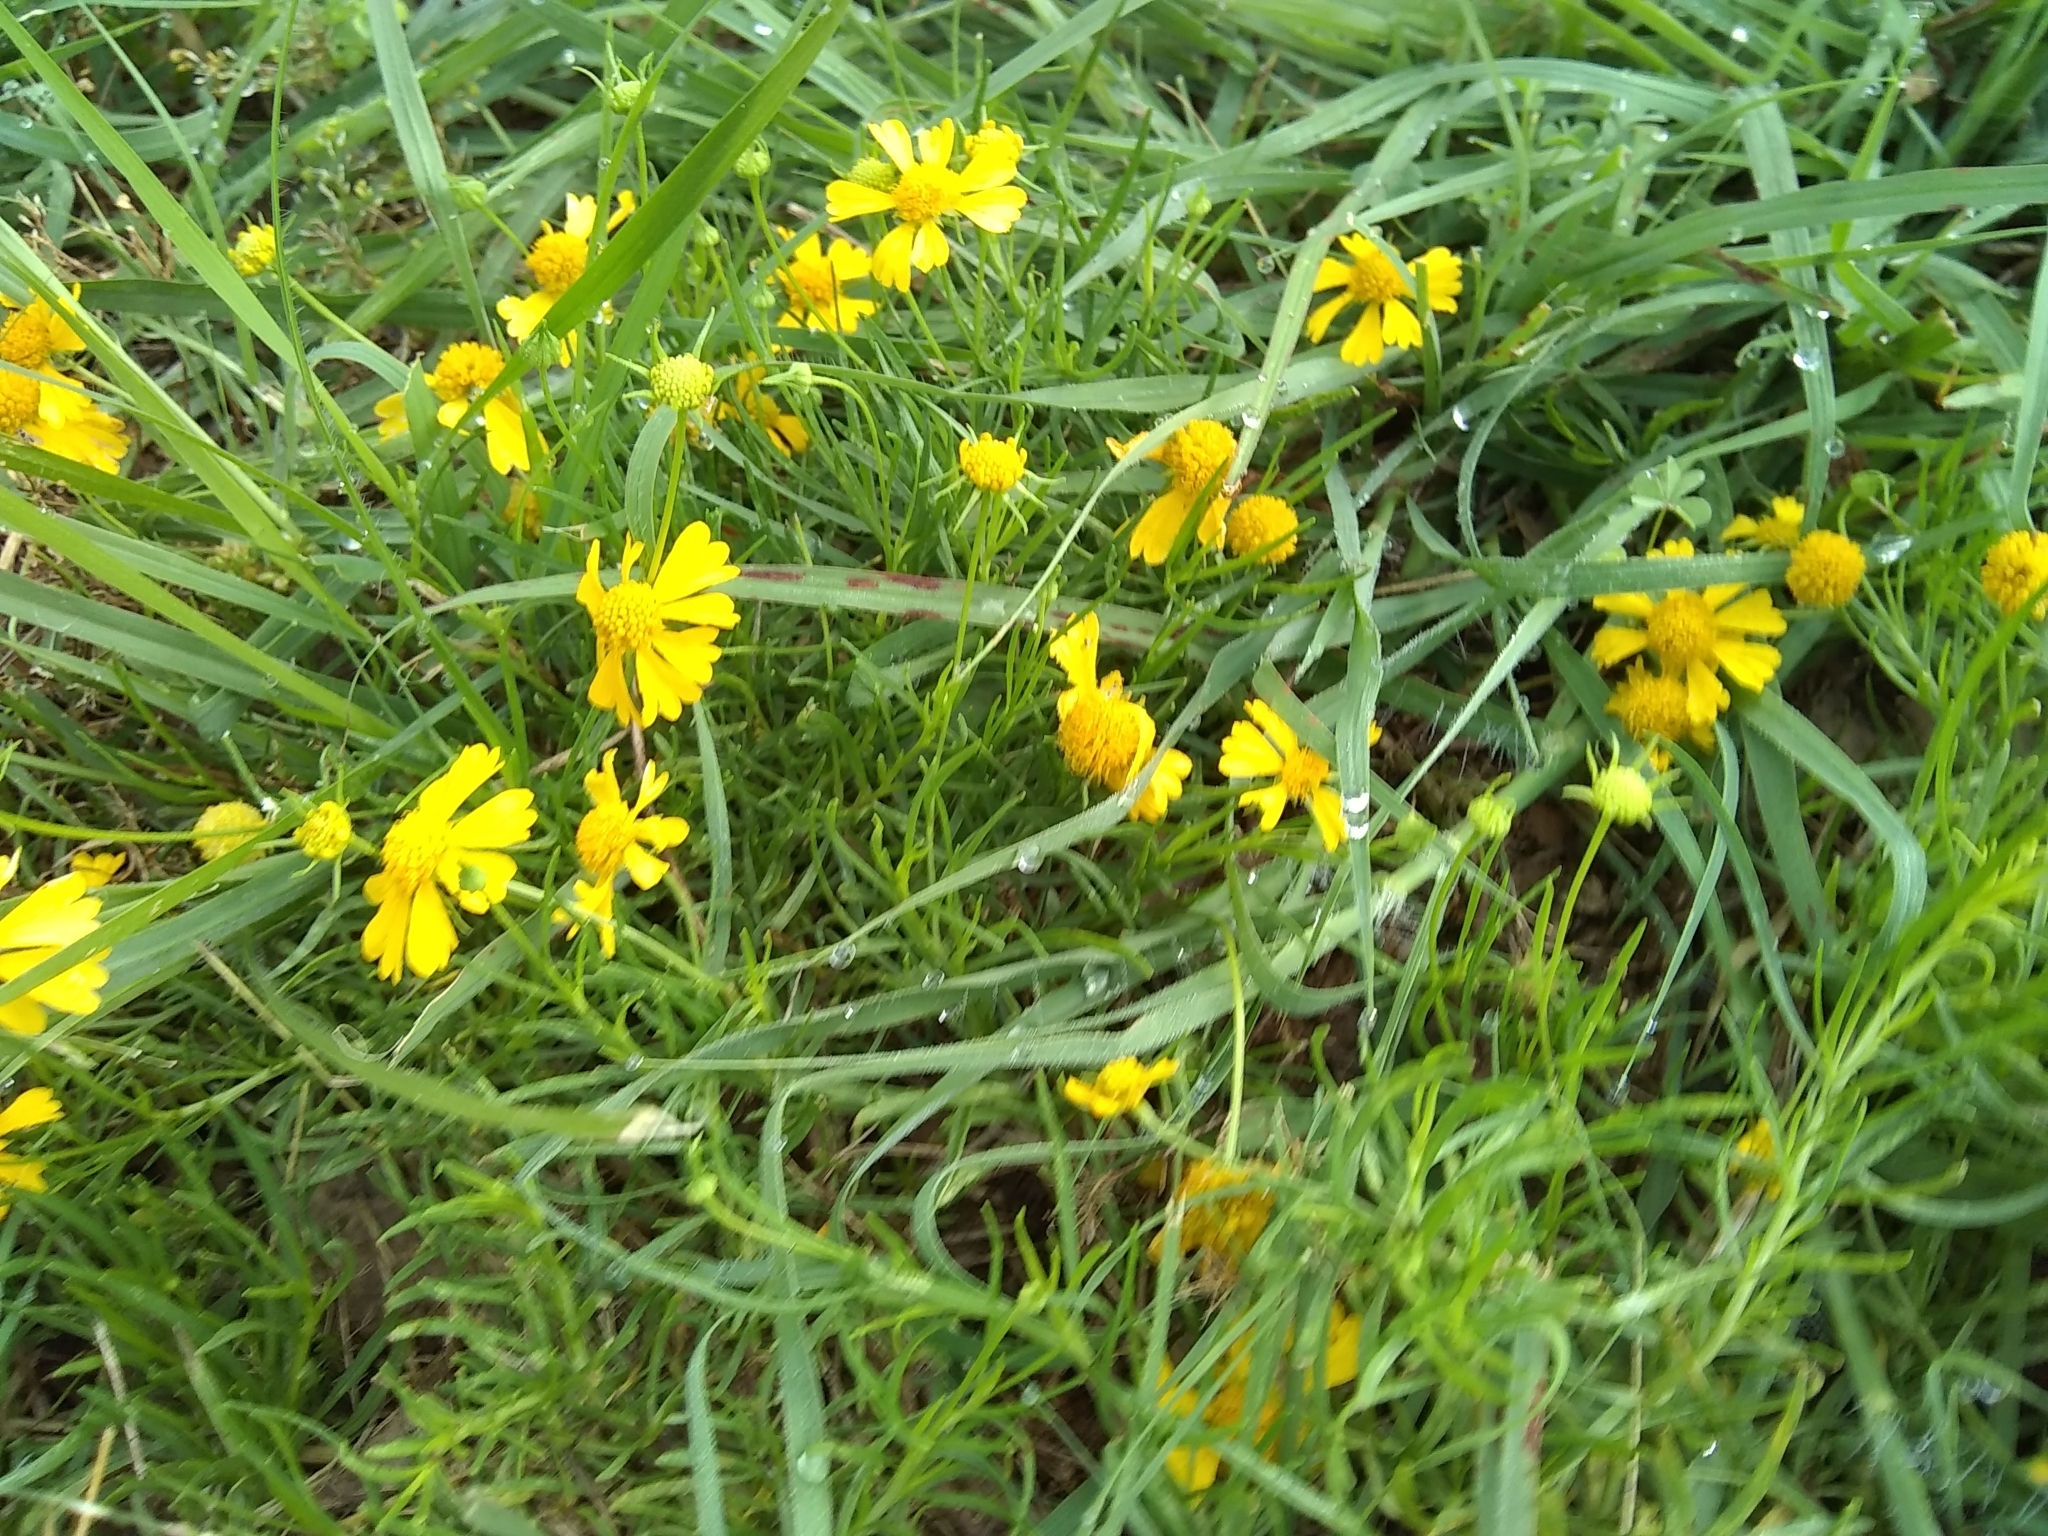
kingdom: Plantae
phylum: Tracheophyta
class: Magnoliopsida
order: Asterales
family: Asteraceae
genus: Helenium
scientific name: Helenium amarum
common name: Bitter sneezeweed
